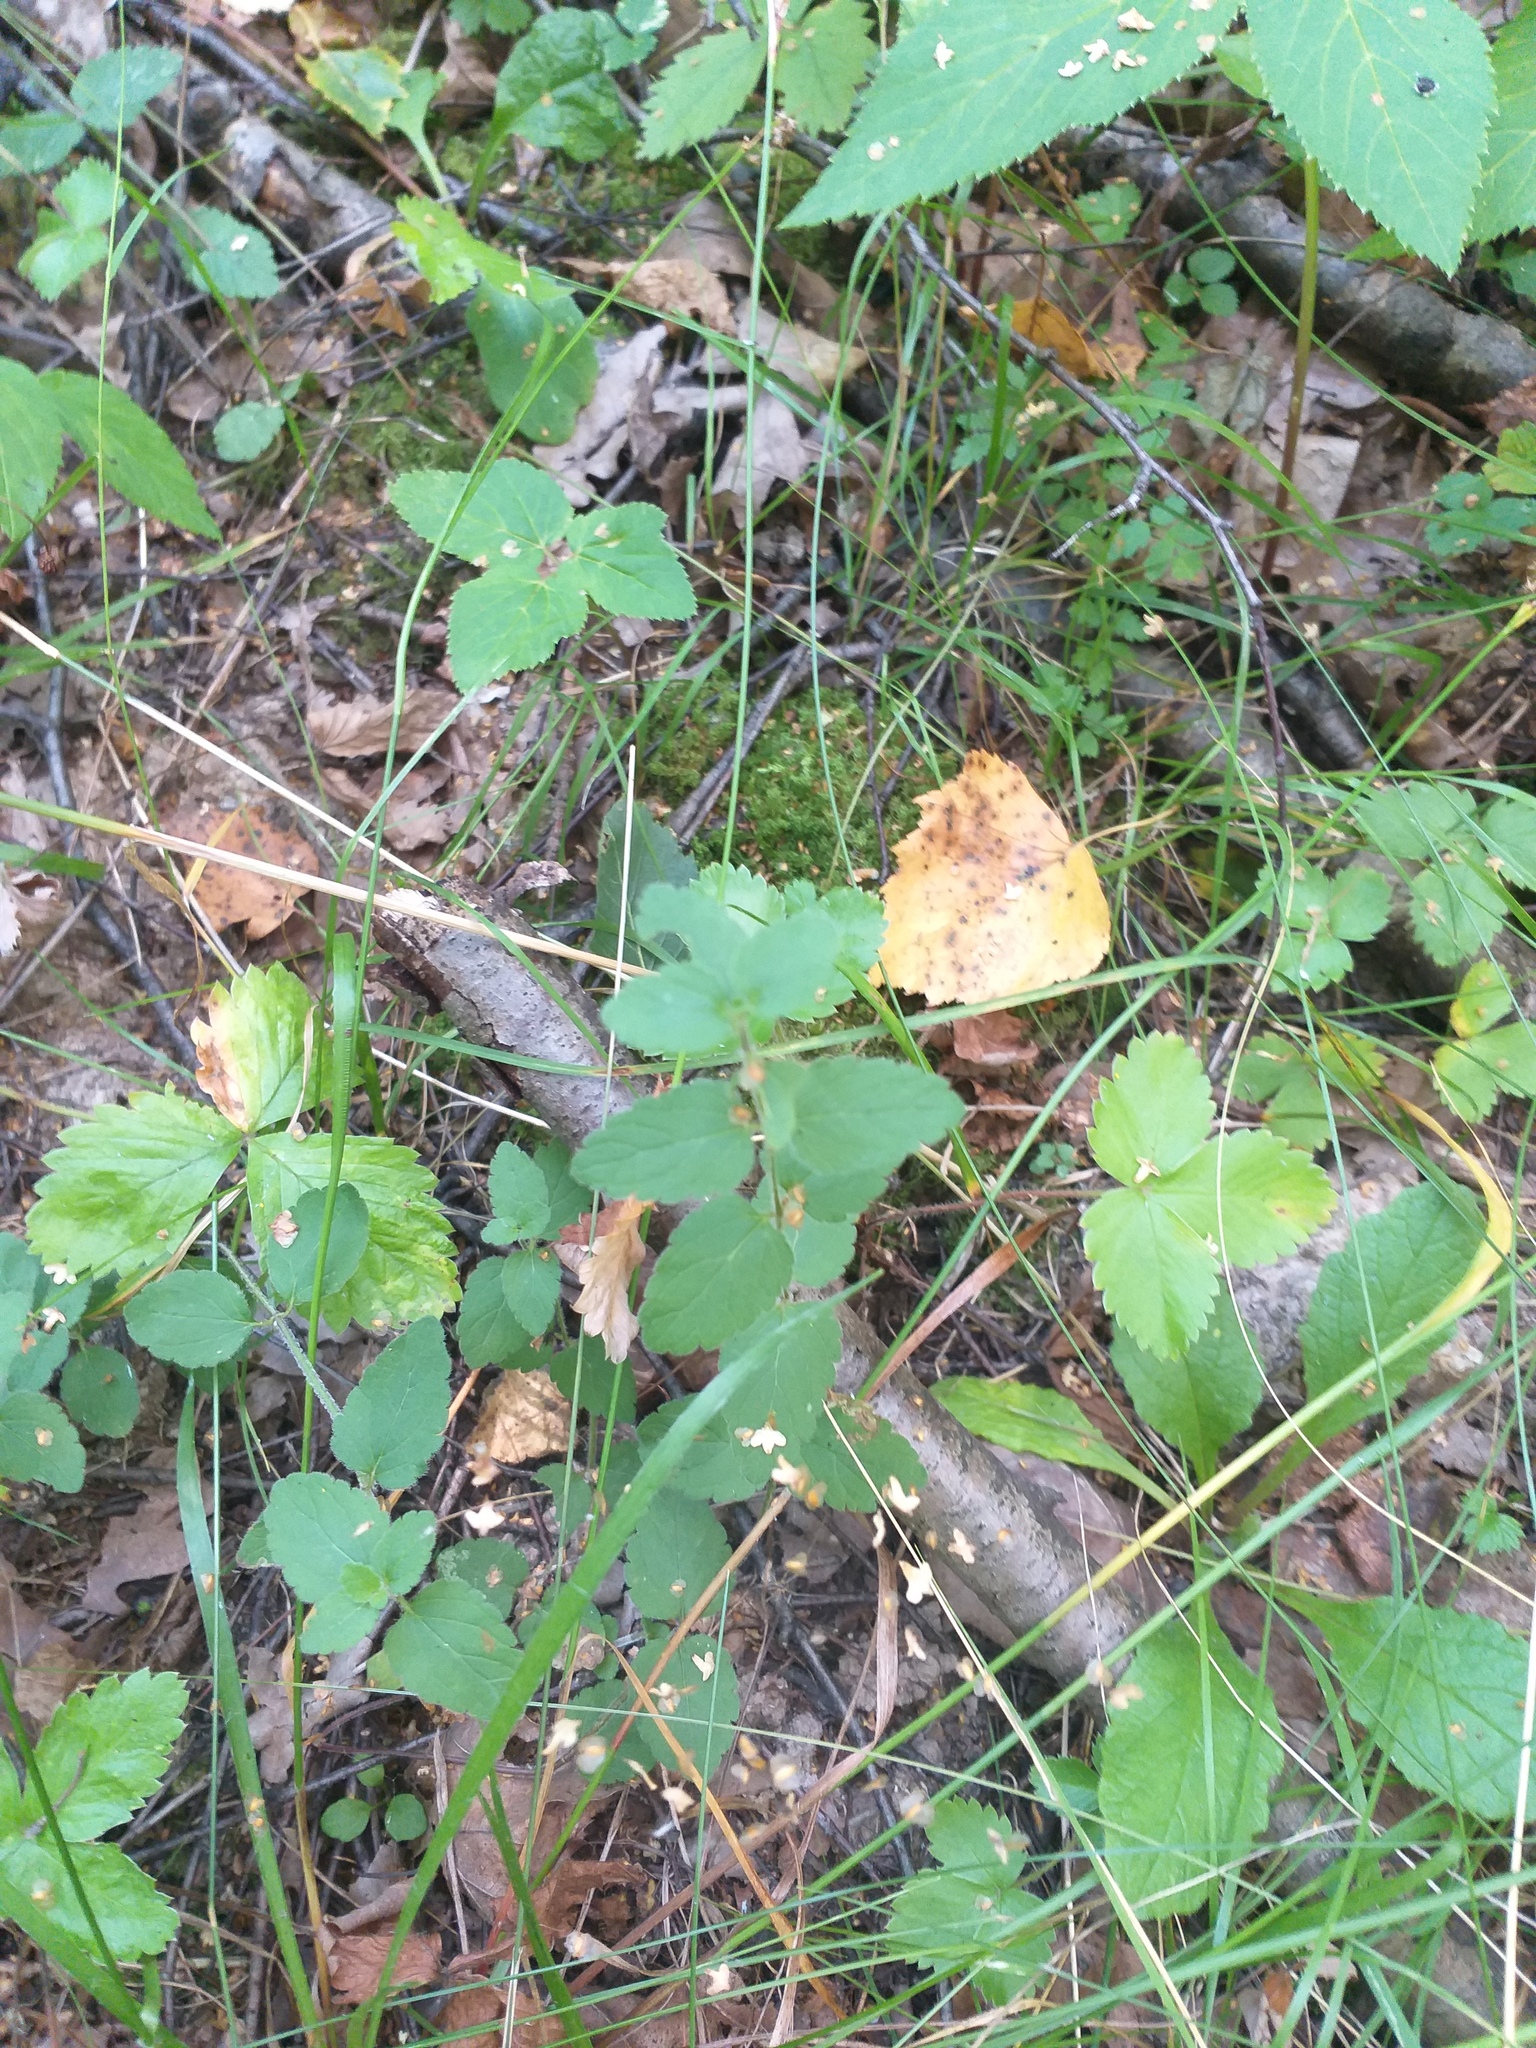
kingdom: Plantae
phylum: Tracheophyta
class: Magnoliopsida
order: Lamiales
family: Plantaginaceae
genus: Veronica
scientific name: Veronica chamaedrys
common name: Germander speedwell
